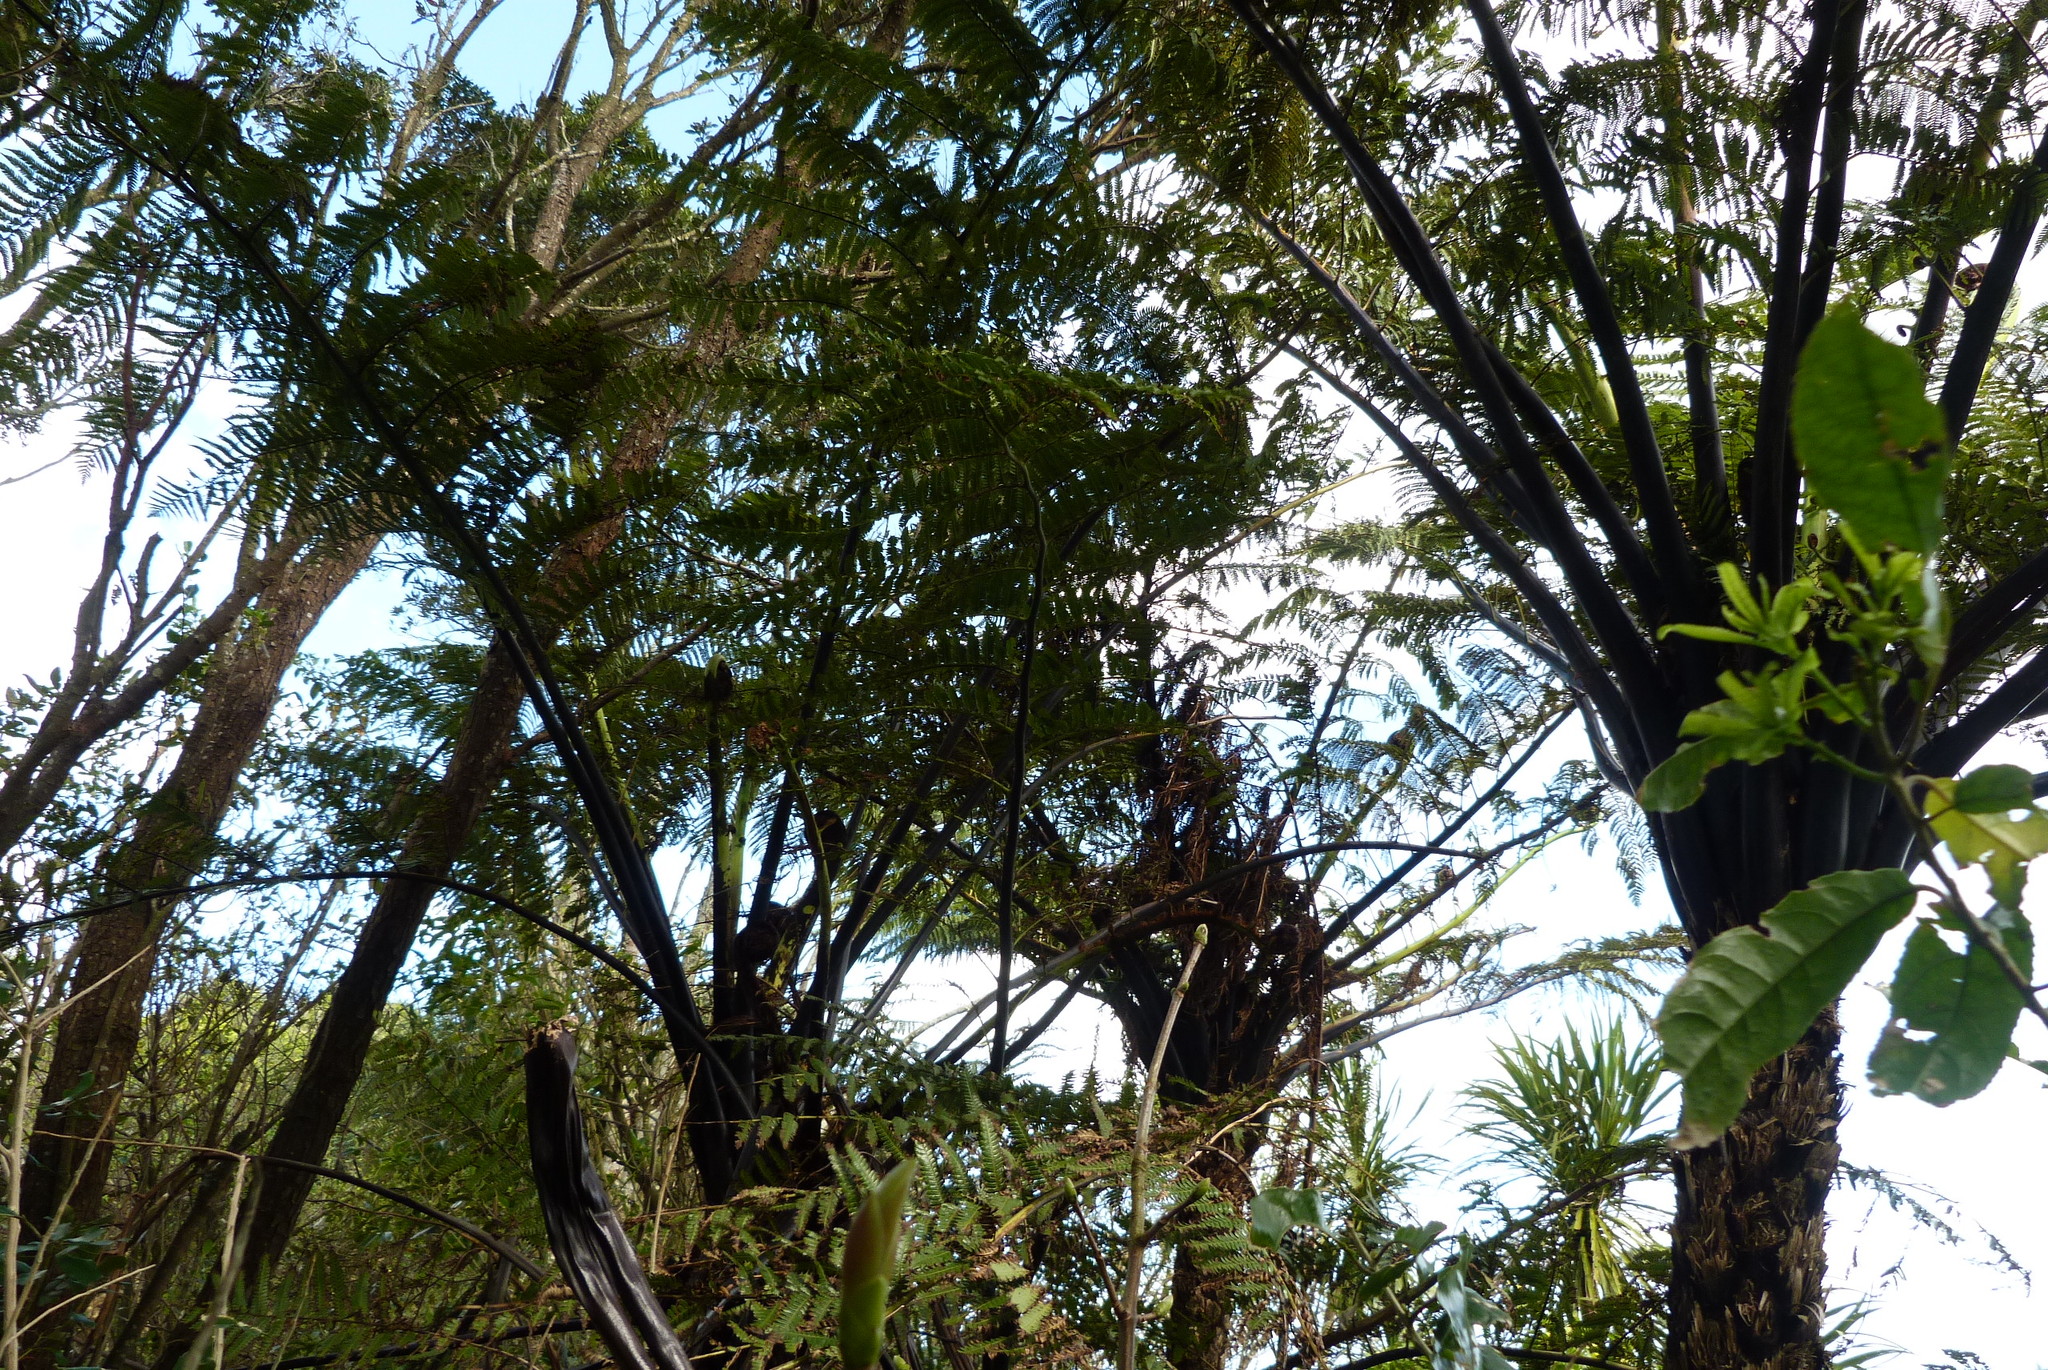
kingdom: Plantae
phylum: Tracheophyta
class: Polypodiopsida
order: Cyatheales
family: Cyatheaceae
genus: Sphaeropteris
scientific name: Sphaeropteris medullaris
